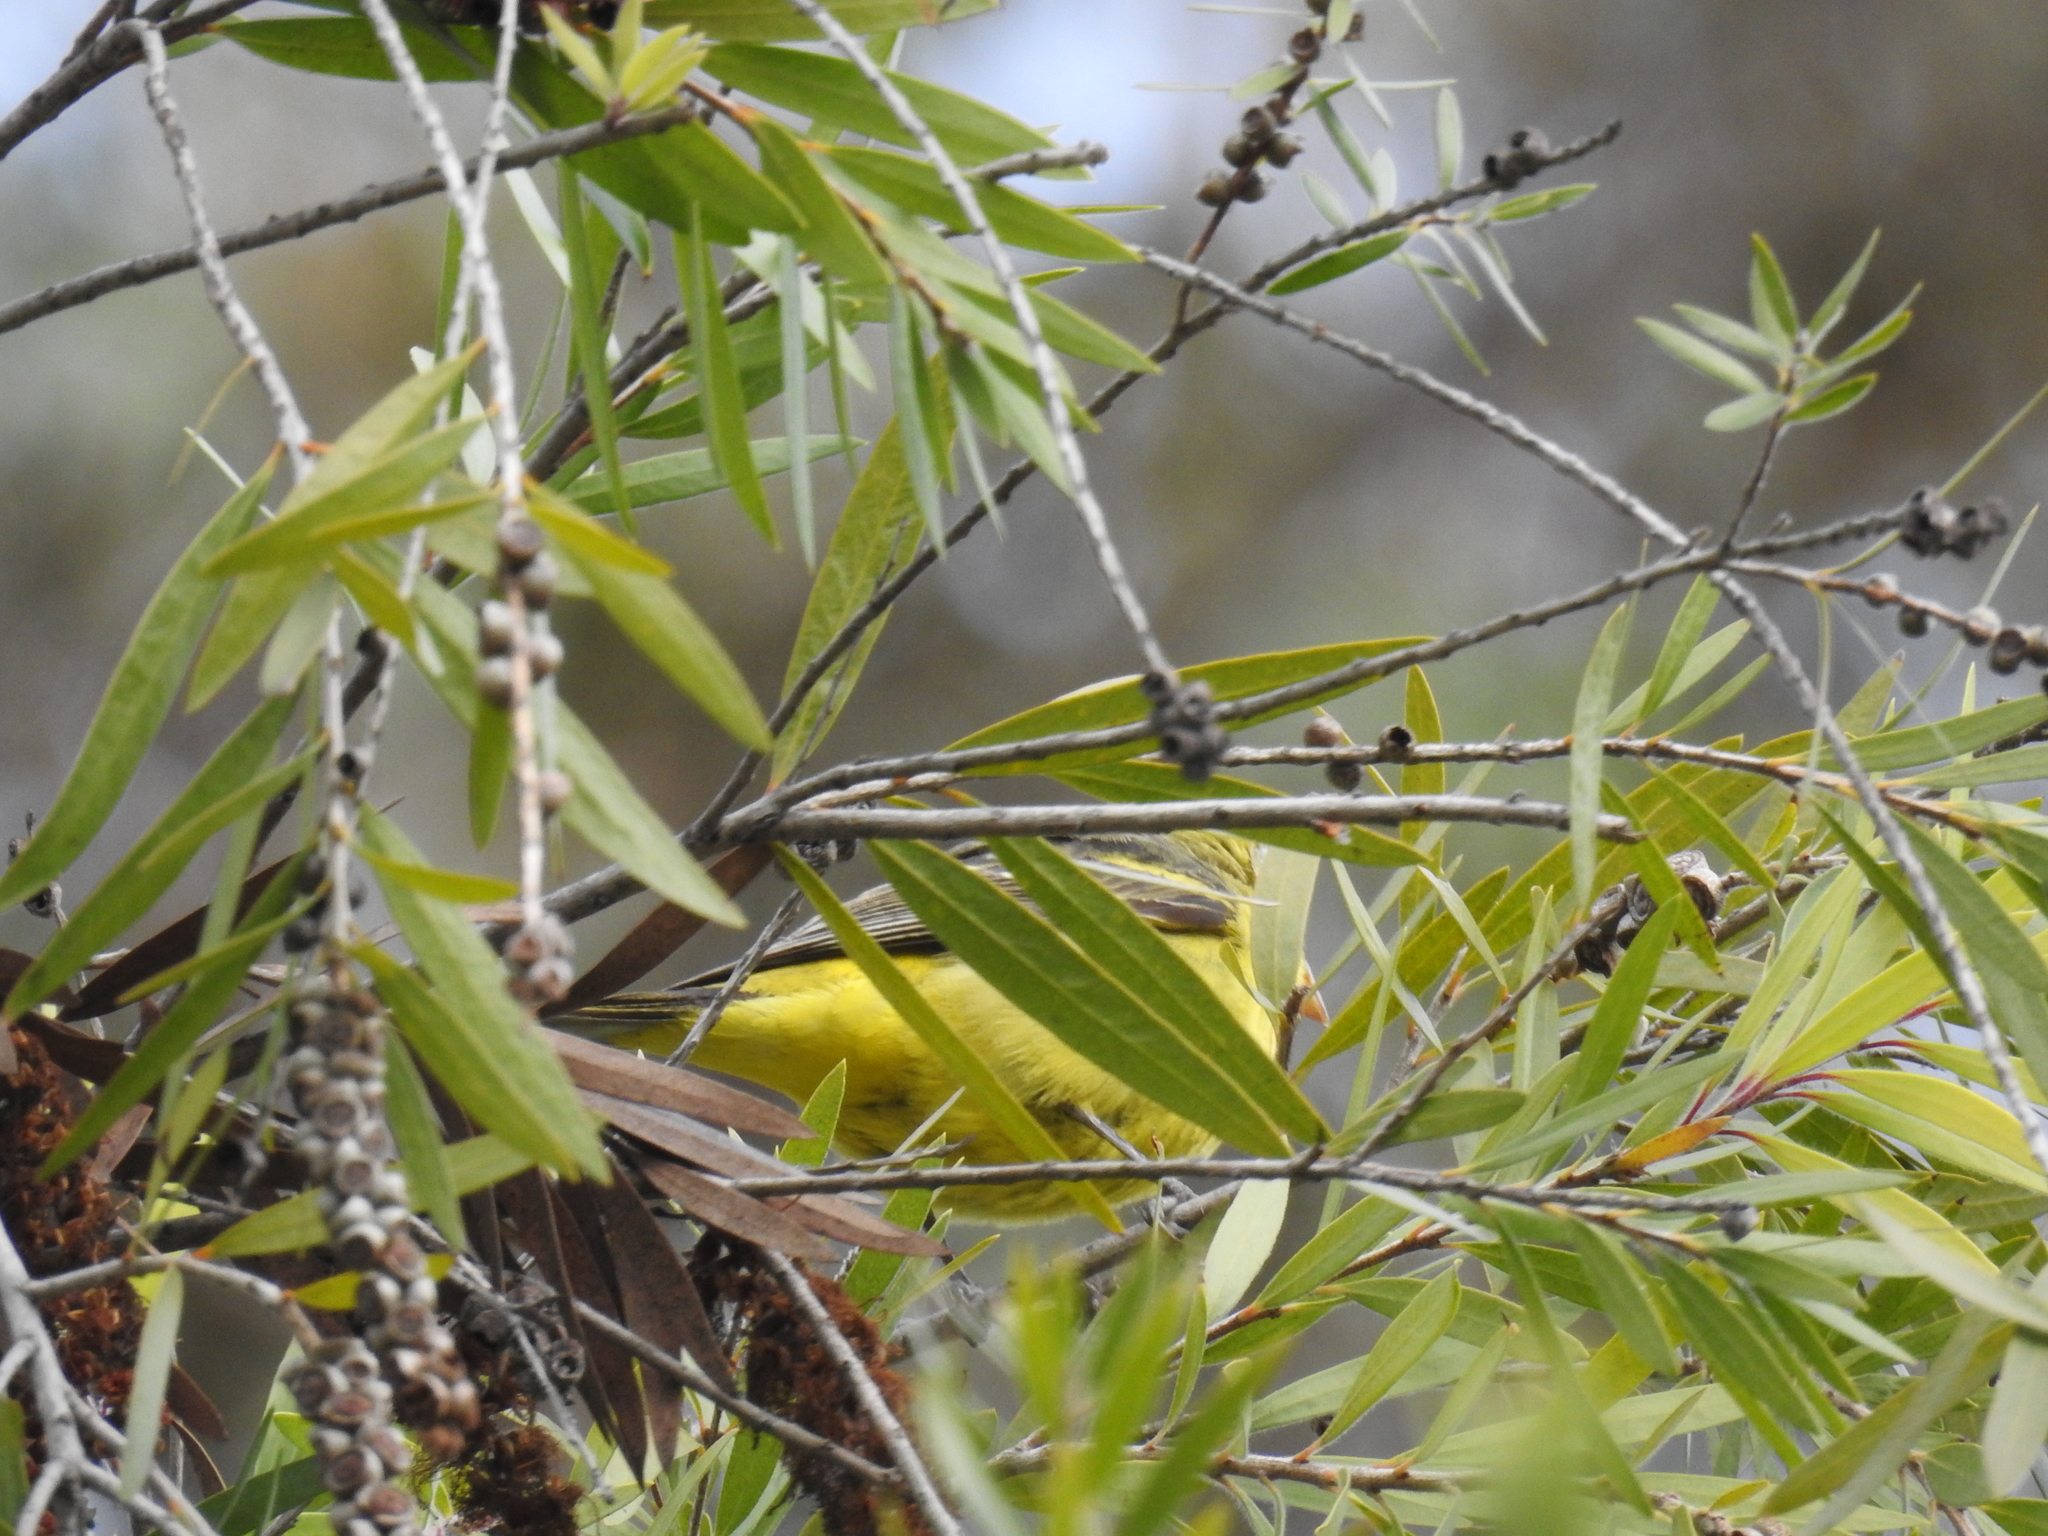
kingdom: Animalia
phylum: Chordata
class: Aves
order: Passeriformes
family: Cardinalidae
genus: Piranga
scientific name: Piranga ludoviciana
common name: Western tanager
